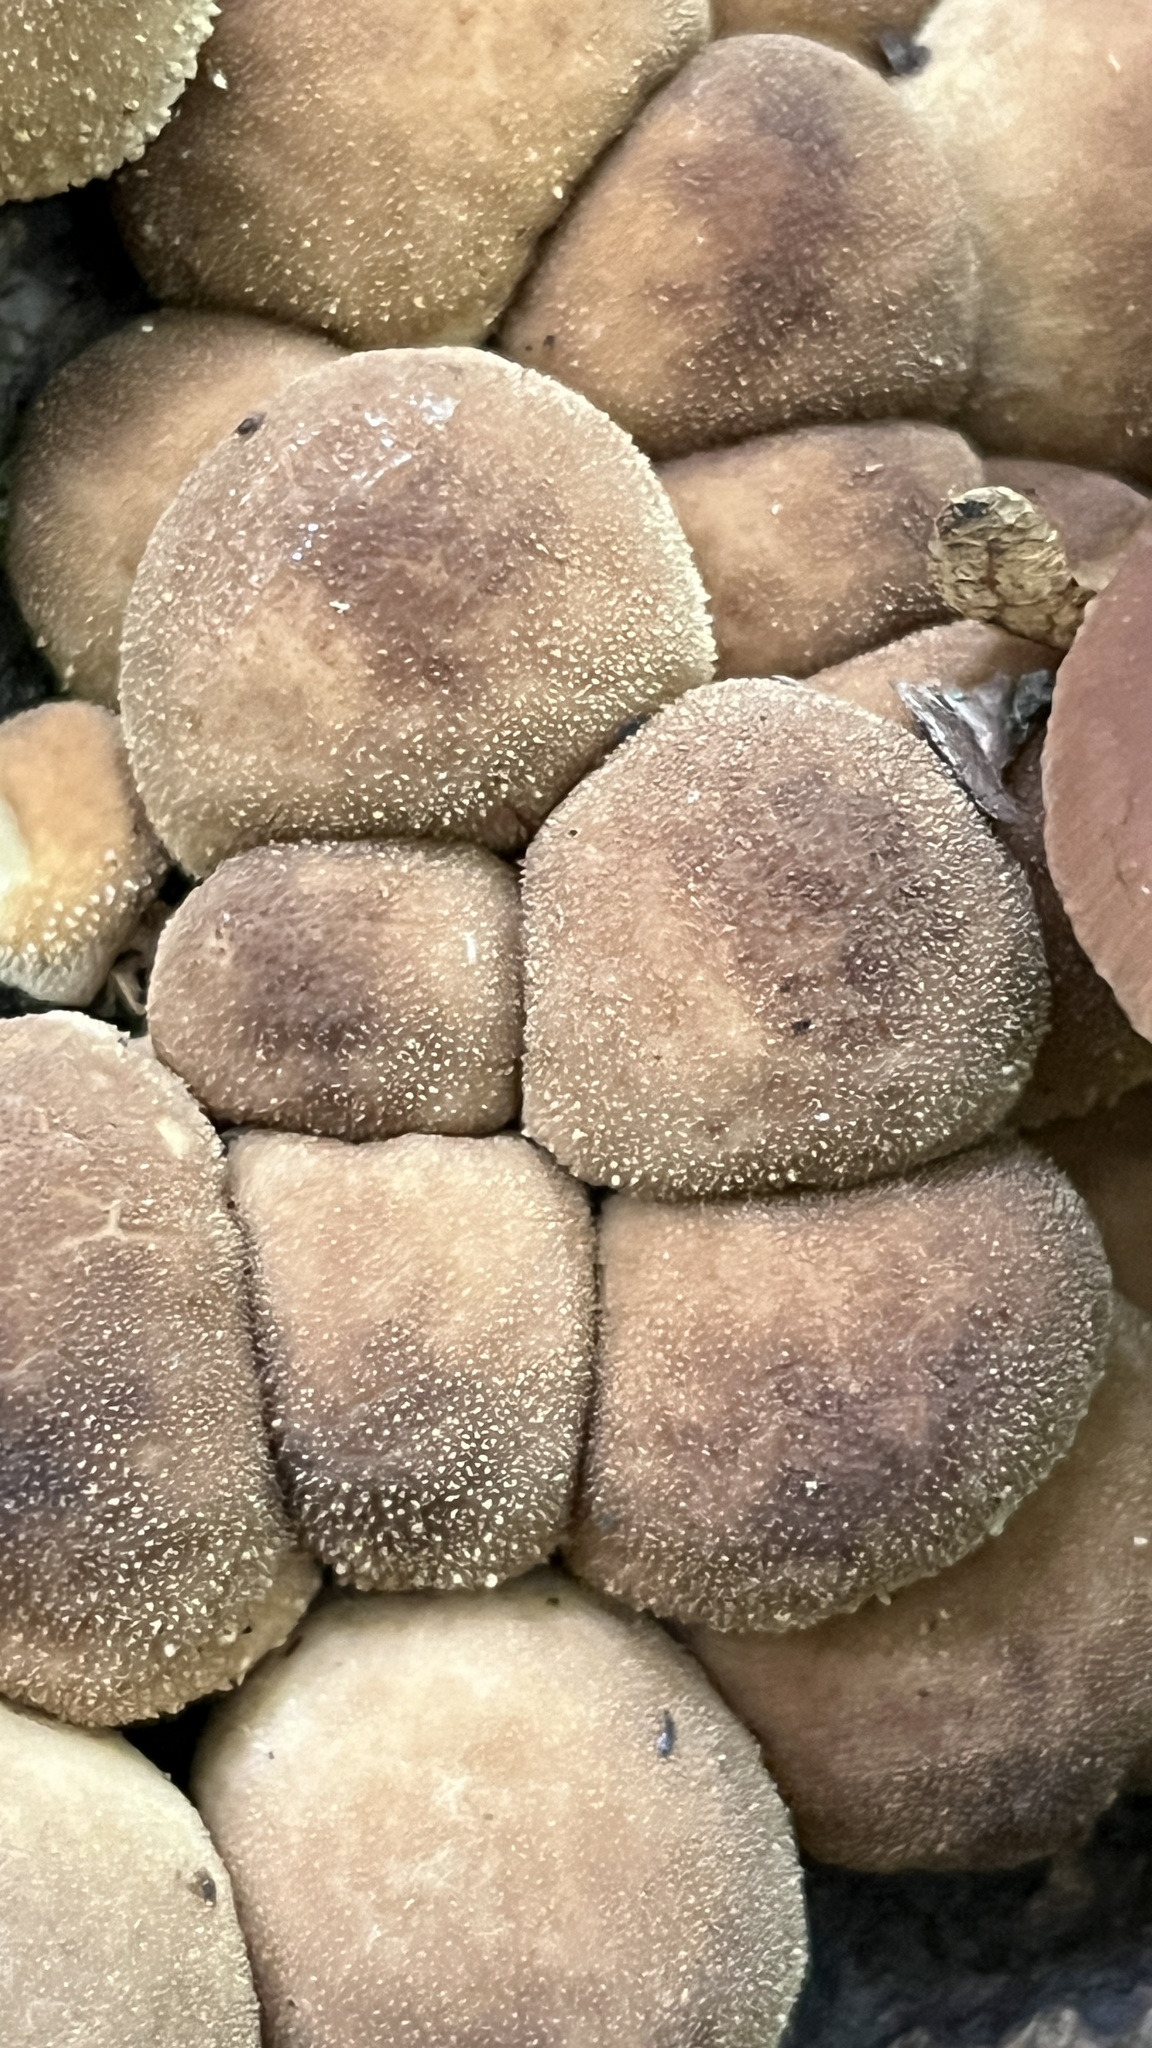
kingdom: Fungi
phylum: Basidiomycota
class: Agaricomycetes
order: Agaricales
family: Lycoperdaceae
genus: Apioperdon
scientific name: Apioperdon pyriforme
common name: Pear-shaped puffball
